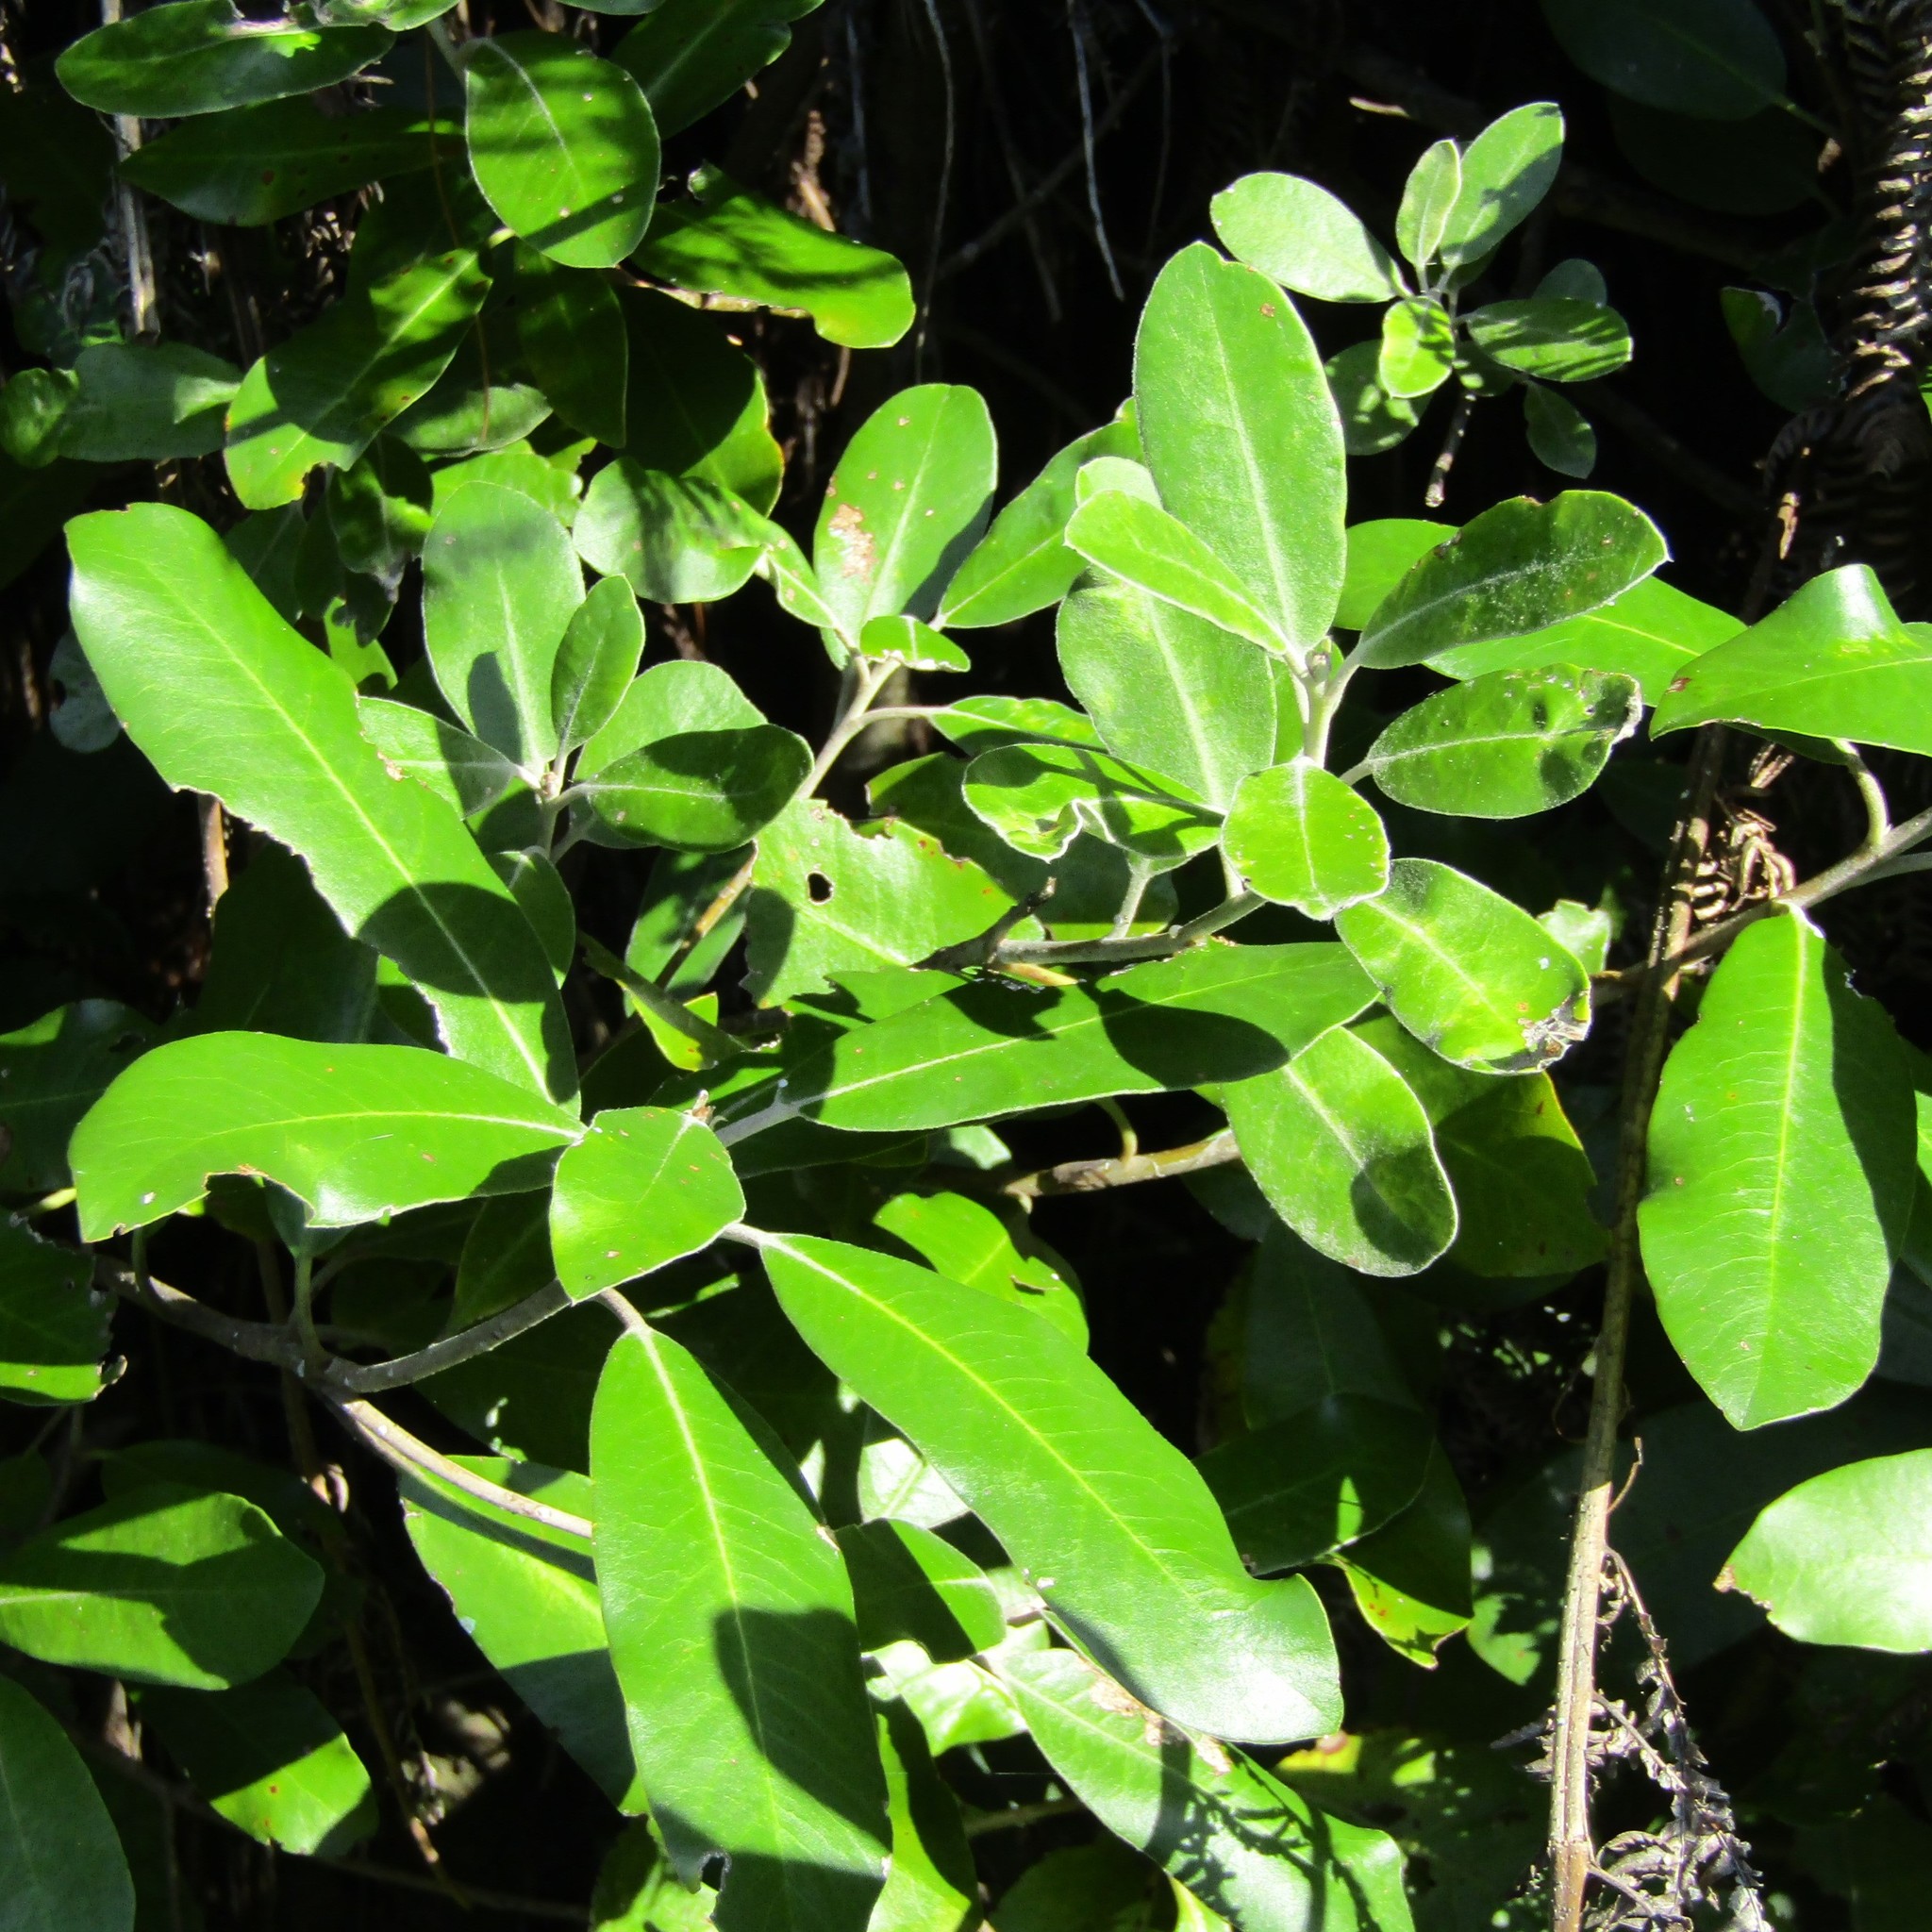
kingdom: Plantae
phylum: Tracheophyta
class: Magnoliopsida
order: Apiales
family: Pittosporaceae
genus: Pittosporum
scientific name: Pittosporum ralphii
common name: Ralph's desertwillow
